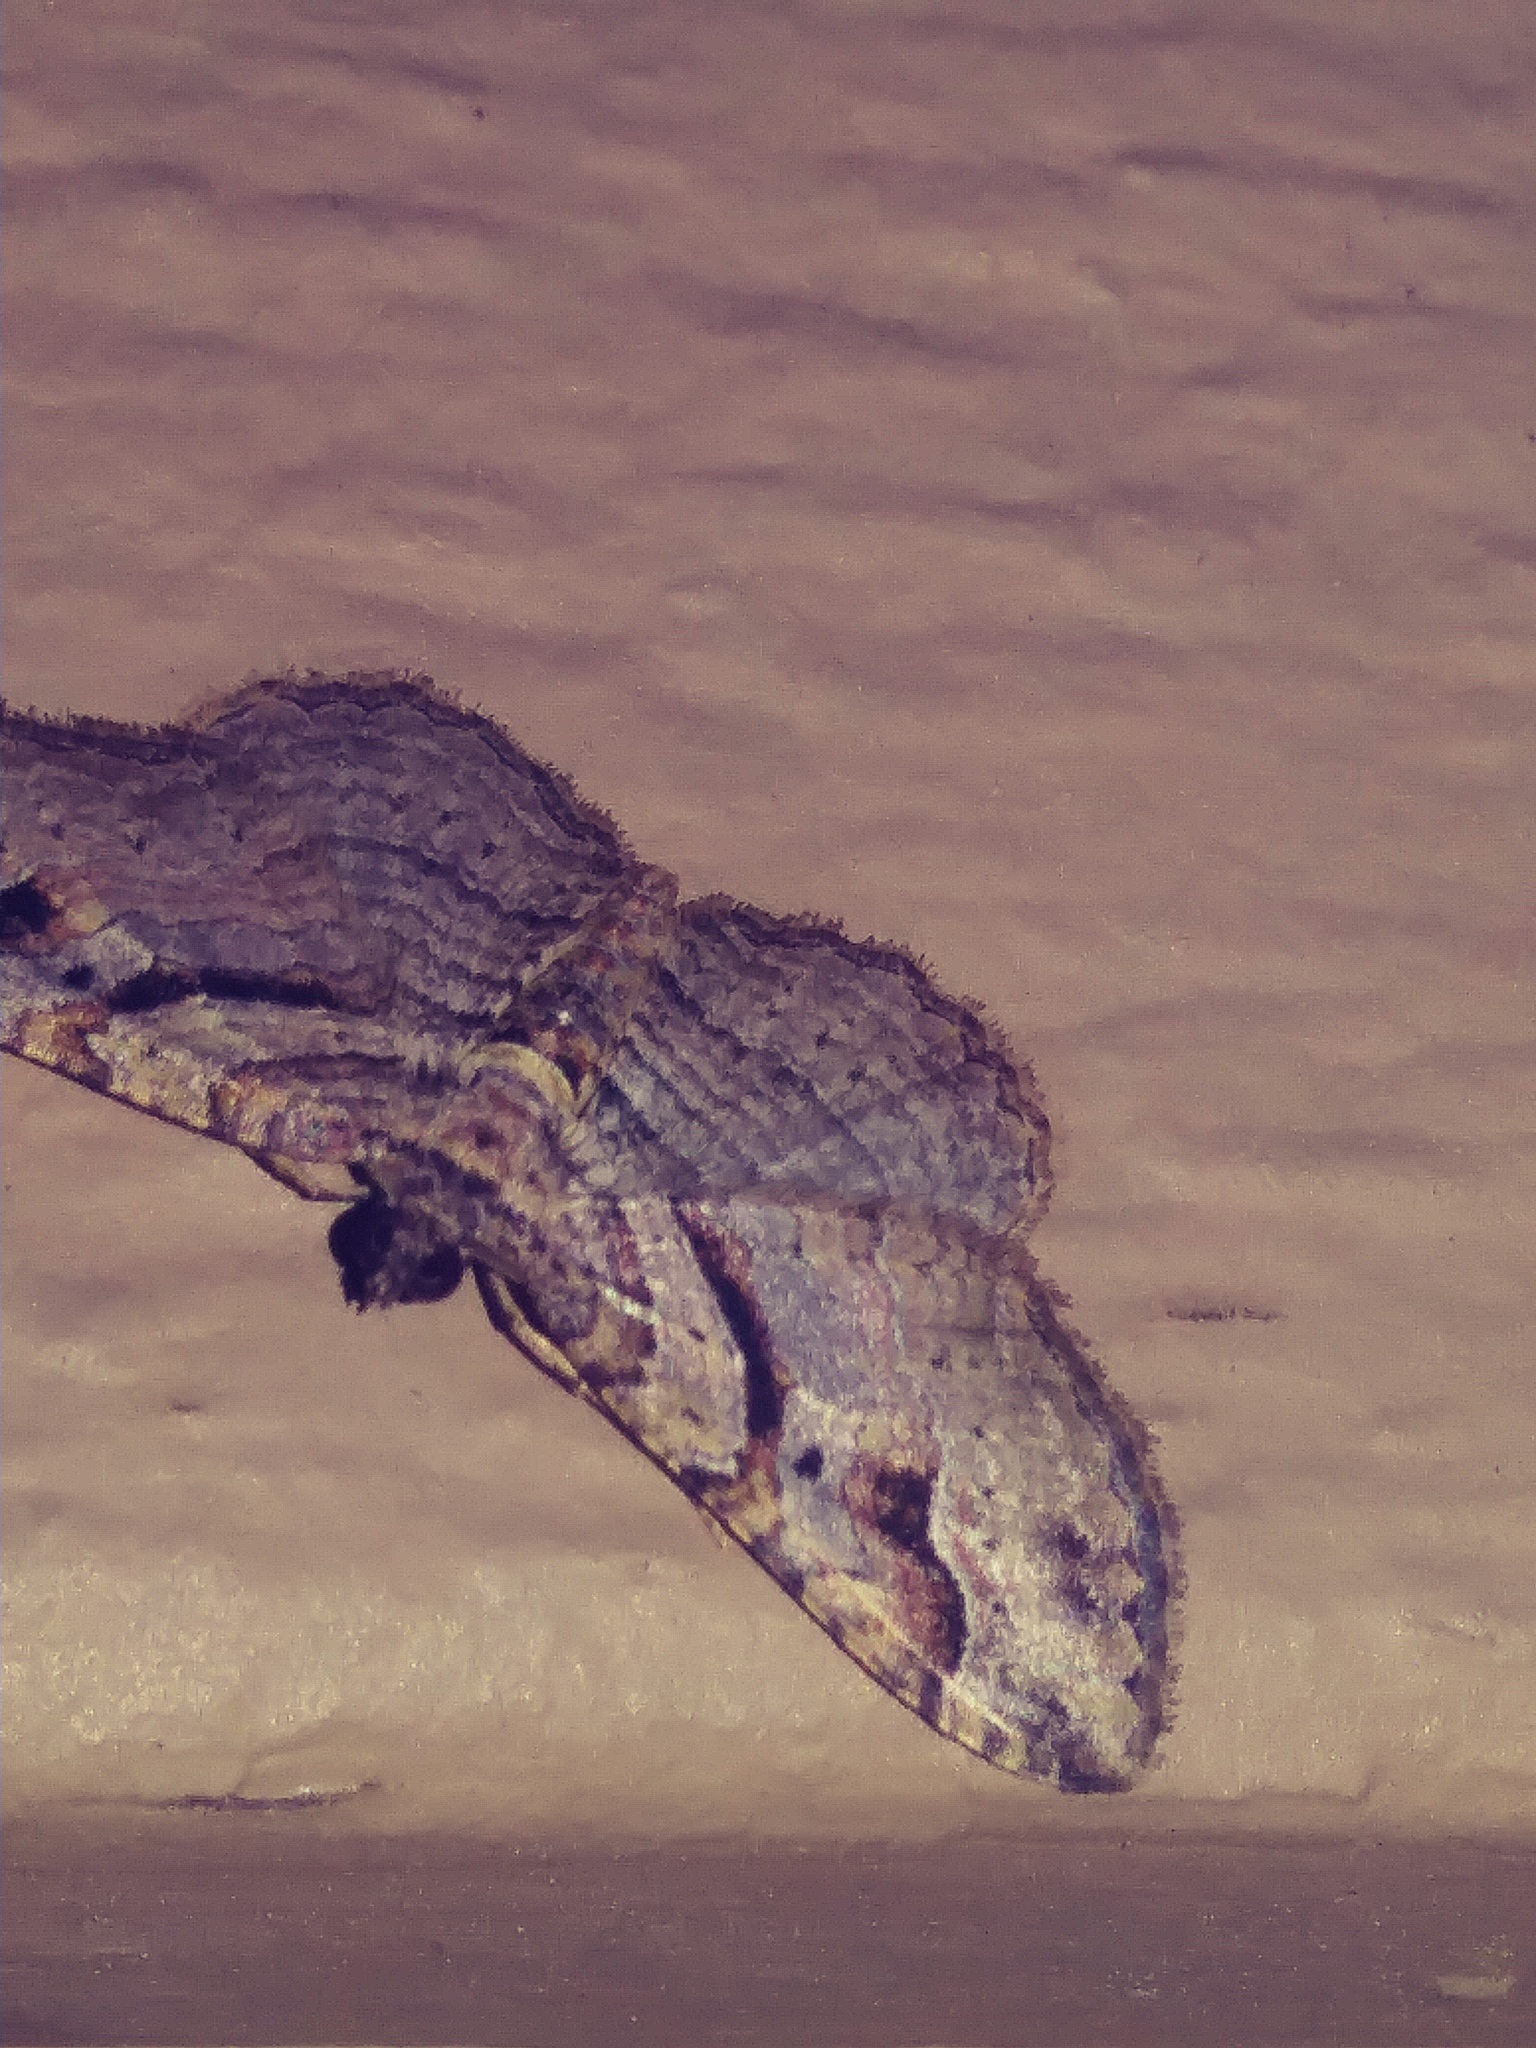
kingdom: Animalia
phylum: Arthropoda
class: Insecta
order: Lepidoptera
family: Geometridae
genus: Costaconvexa
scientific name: Costaconvexa centrostrigaria
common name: Bent-line carpet
